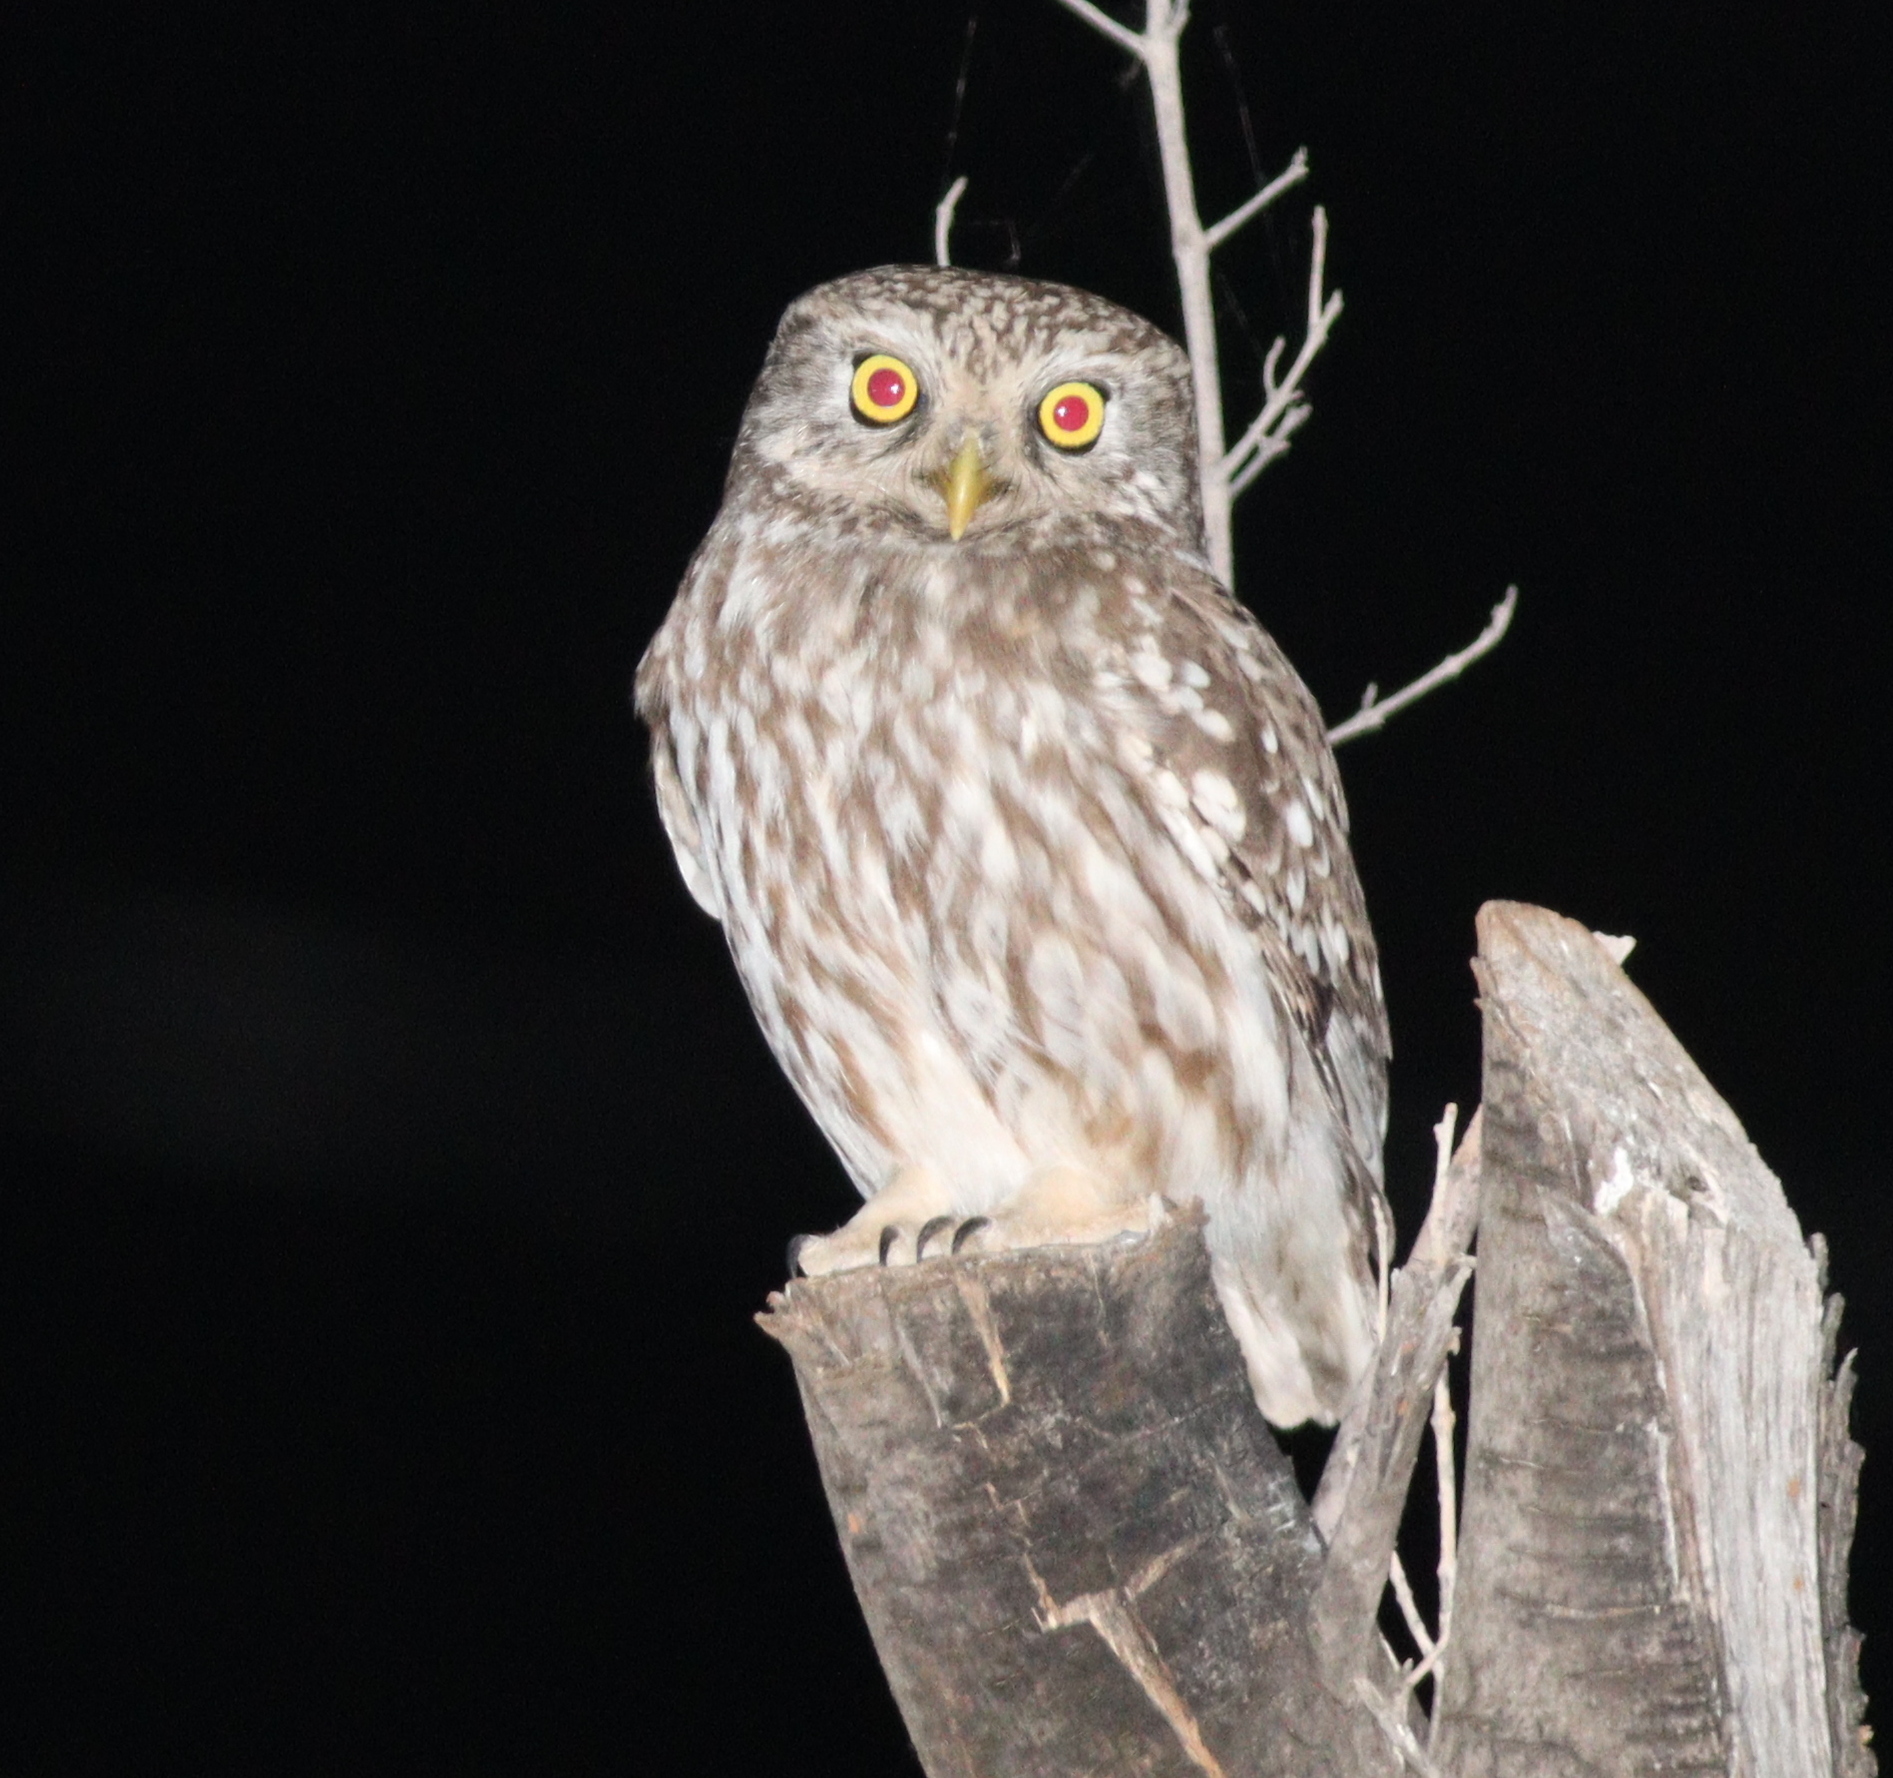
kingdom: Animalia
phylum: Chordata
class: Aves
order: Strigiformes
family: Strigidae
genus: Athene
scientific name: Athene noctua
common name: Little owl
